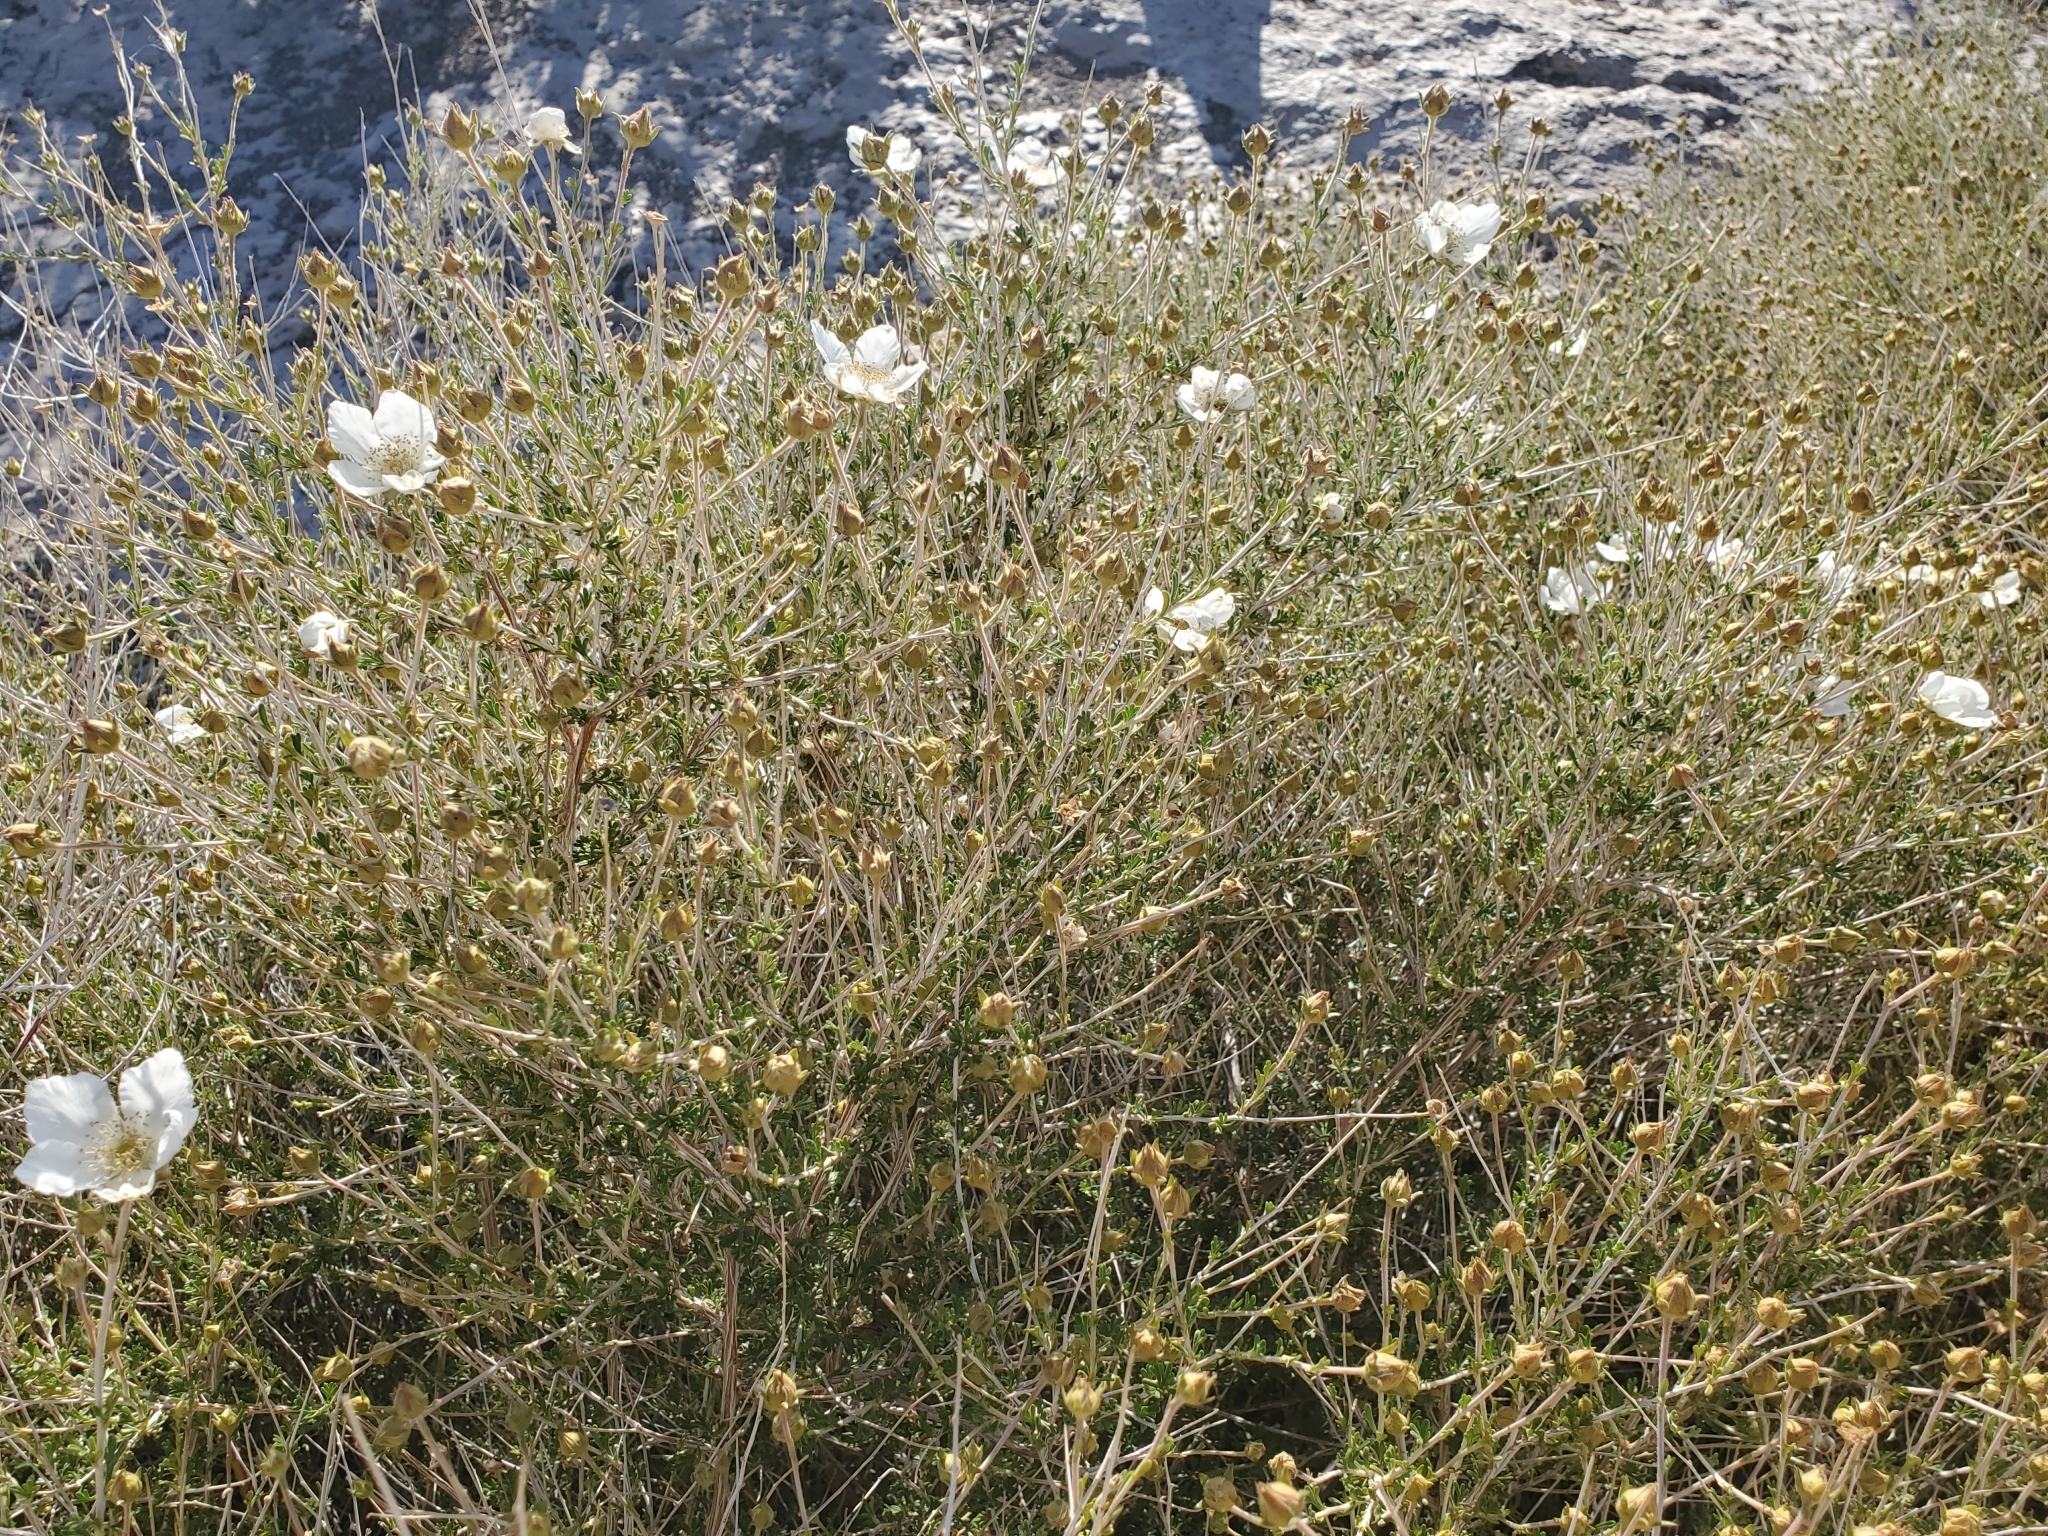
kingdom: Plantae
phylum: Tracheophyta
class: Magnoliopsida
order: Rosales
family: Rosaceae
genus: Fallugia
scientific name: Fallugia paradoxa
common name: Apache-plume
